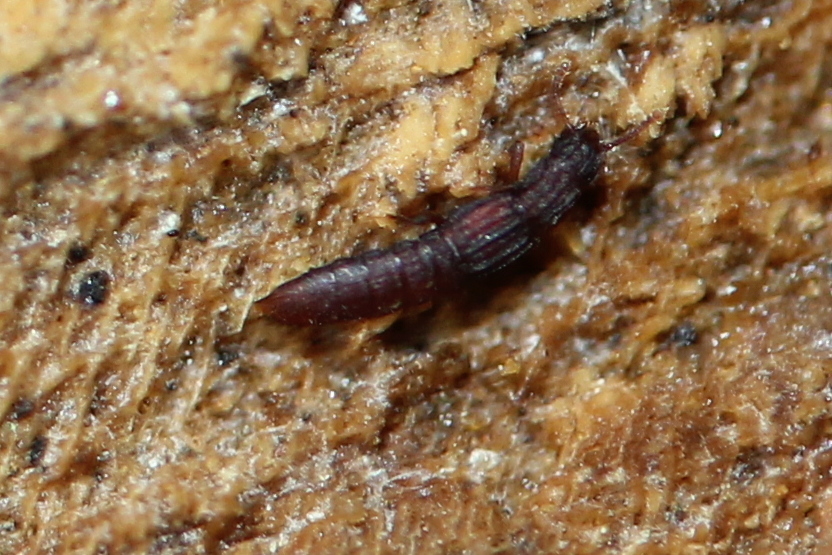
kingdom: Animalia
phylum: Arthropoda
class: Insecta
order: Coleoptera
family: Staphylinidae
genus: Thoracophorus
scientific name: Thoracophorus costalis
